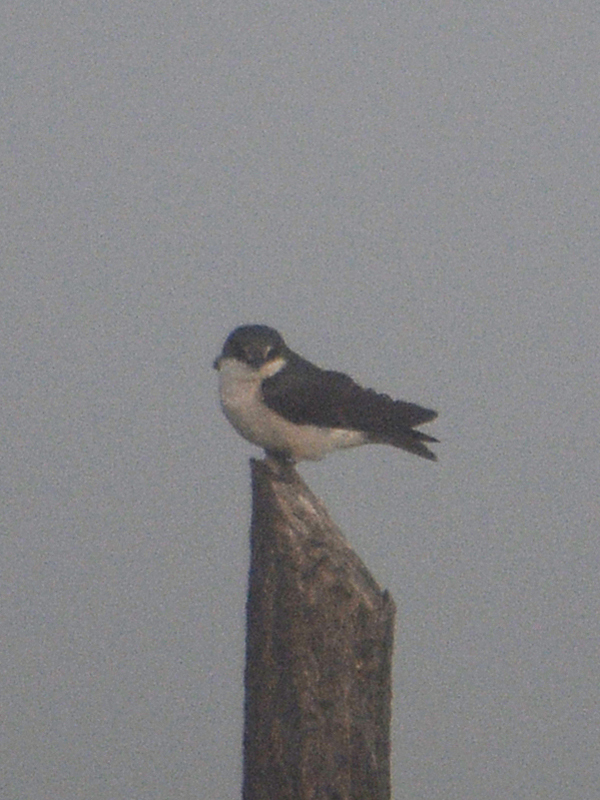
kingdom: Animalia
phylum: Chordata
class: Aves
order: Passeriformes
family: Hirundinidae
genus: Tachycineta
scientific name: Tachycineta albilinea
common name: Mangrove swallow
